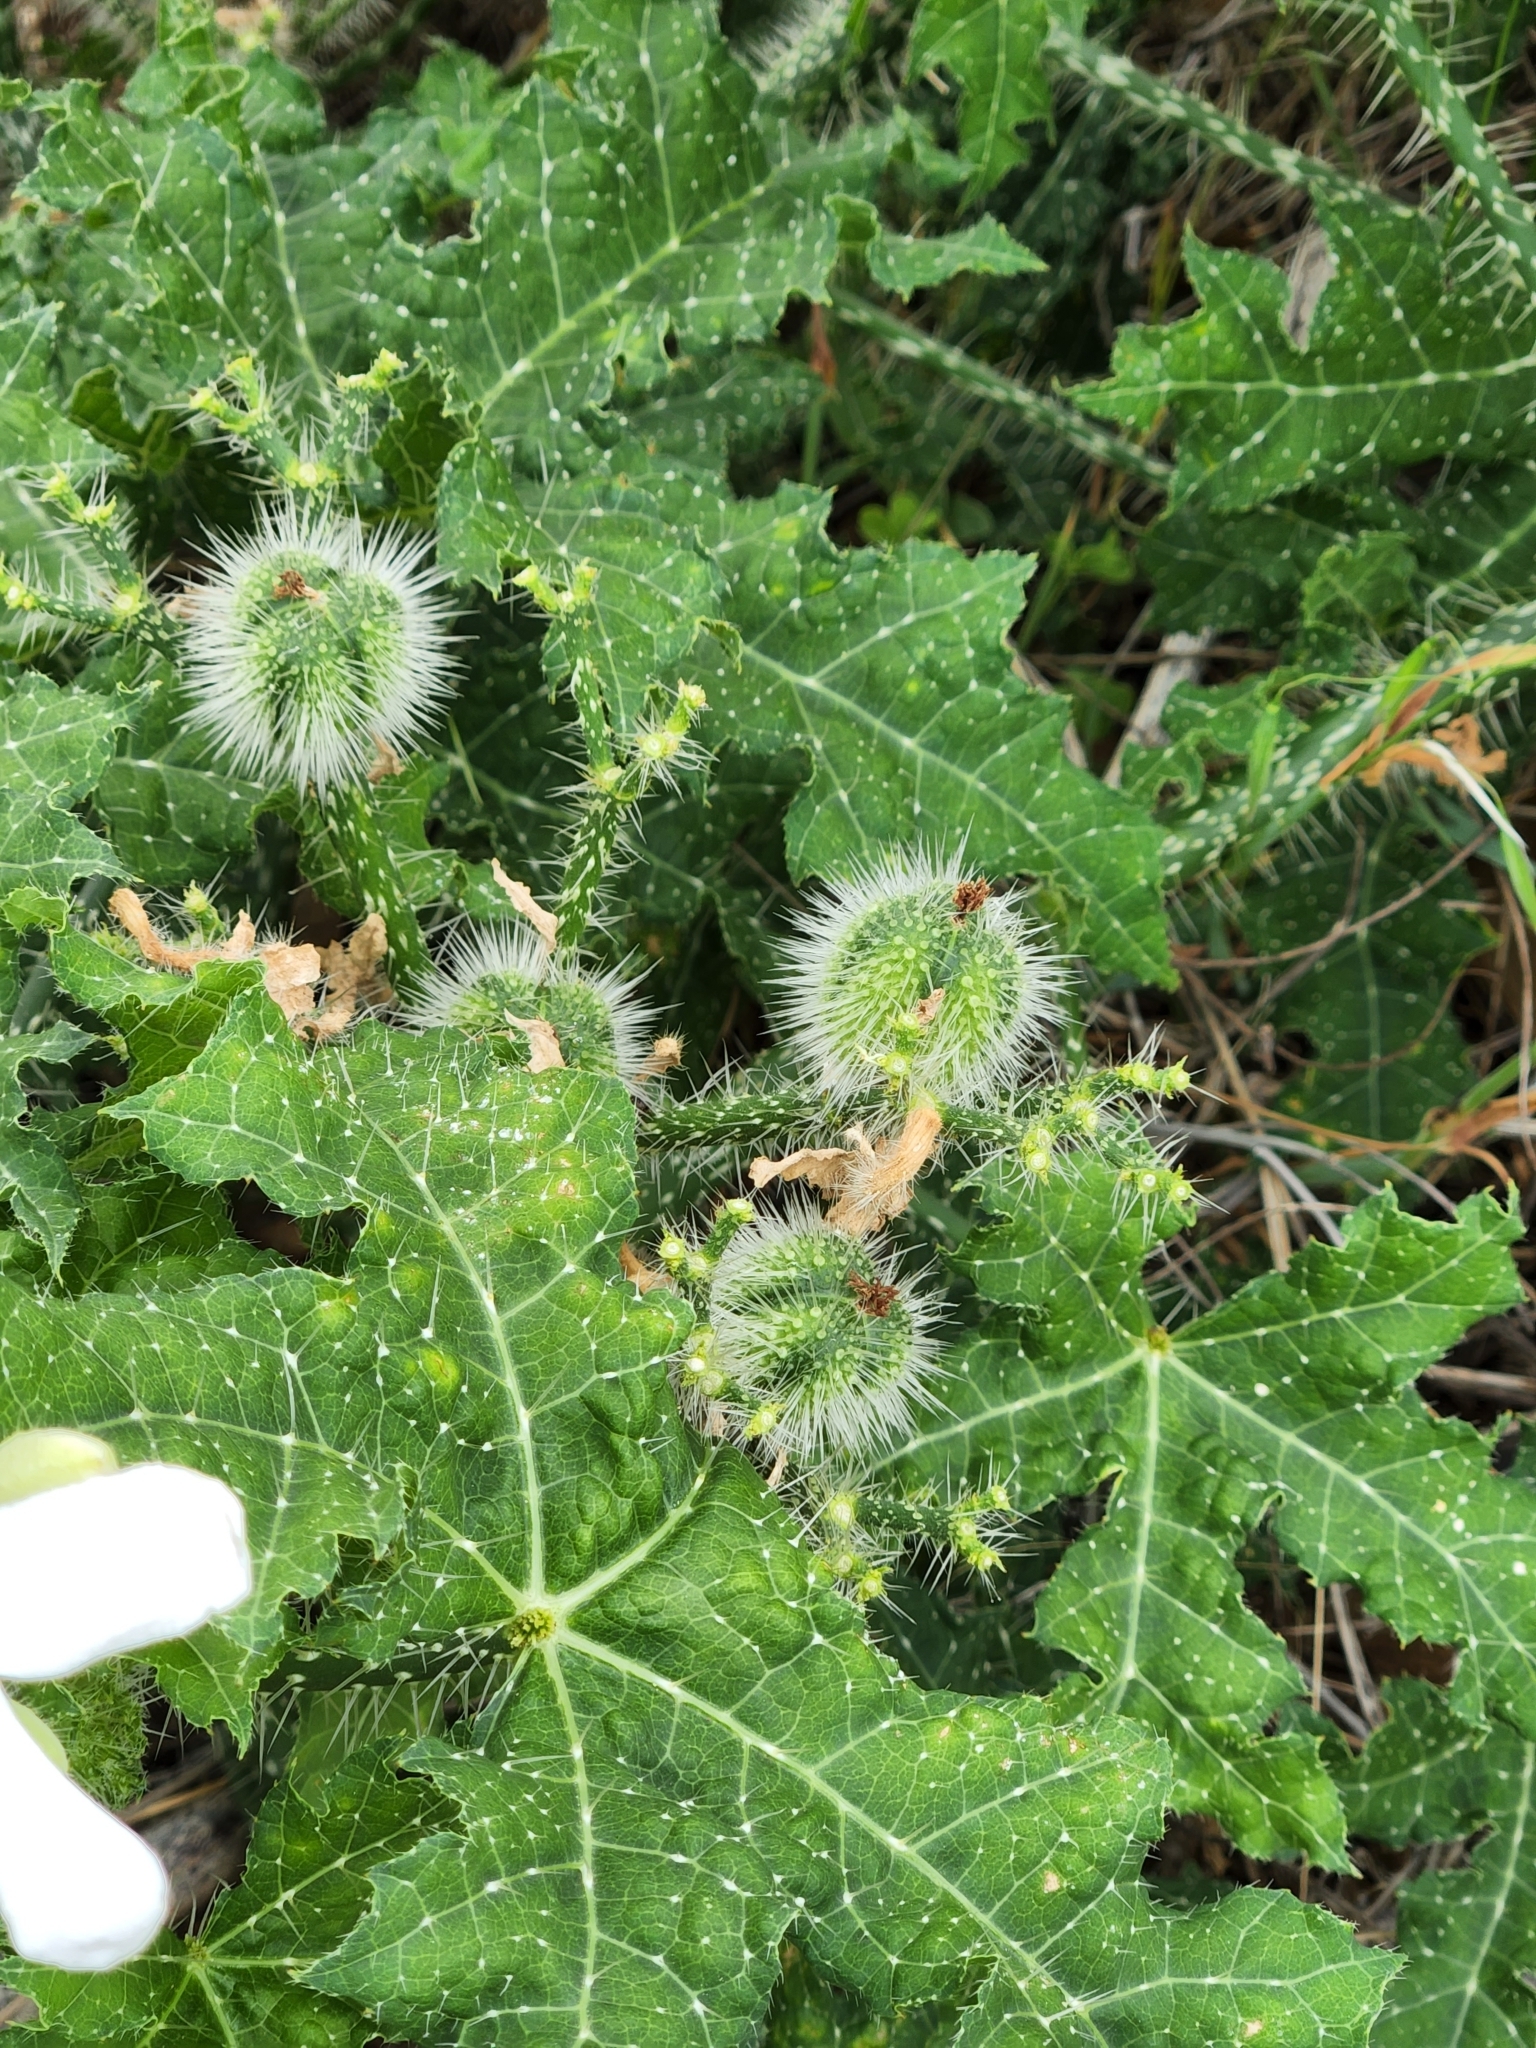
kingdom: Plantae
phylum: Tracheophyta
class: Magnoliopsida
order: Malpighiales
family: Euphorbiaceae
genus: Cnidoscolus
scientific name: Cnidoscolus texanus
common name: Texas bull-nettle
